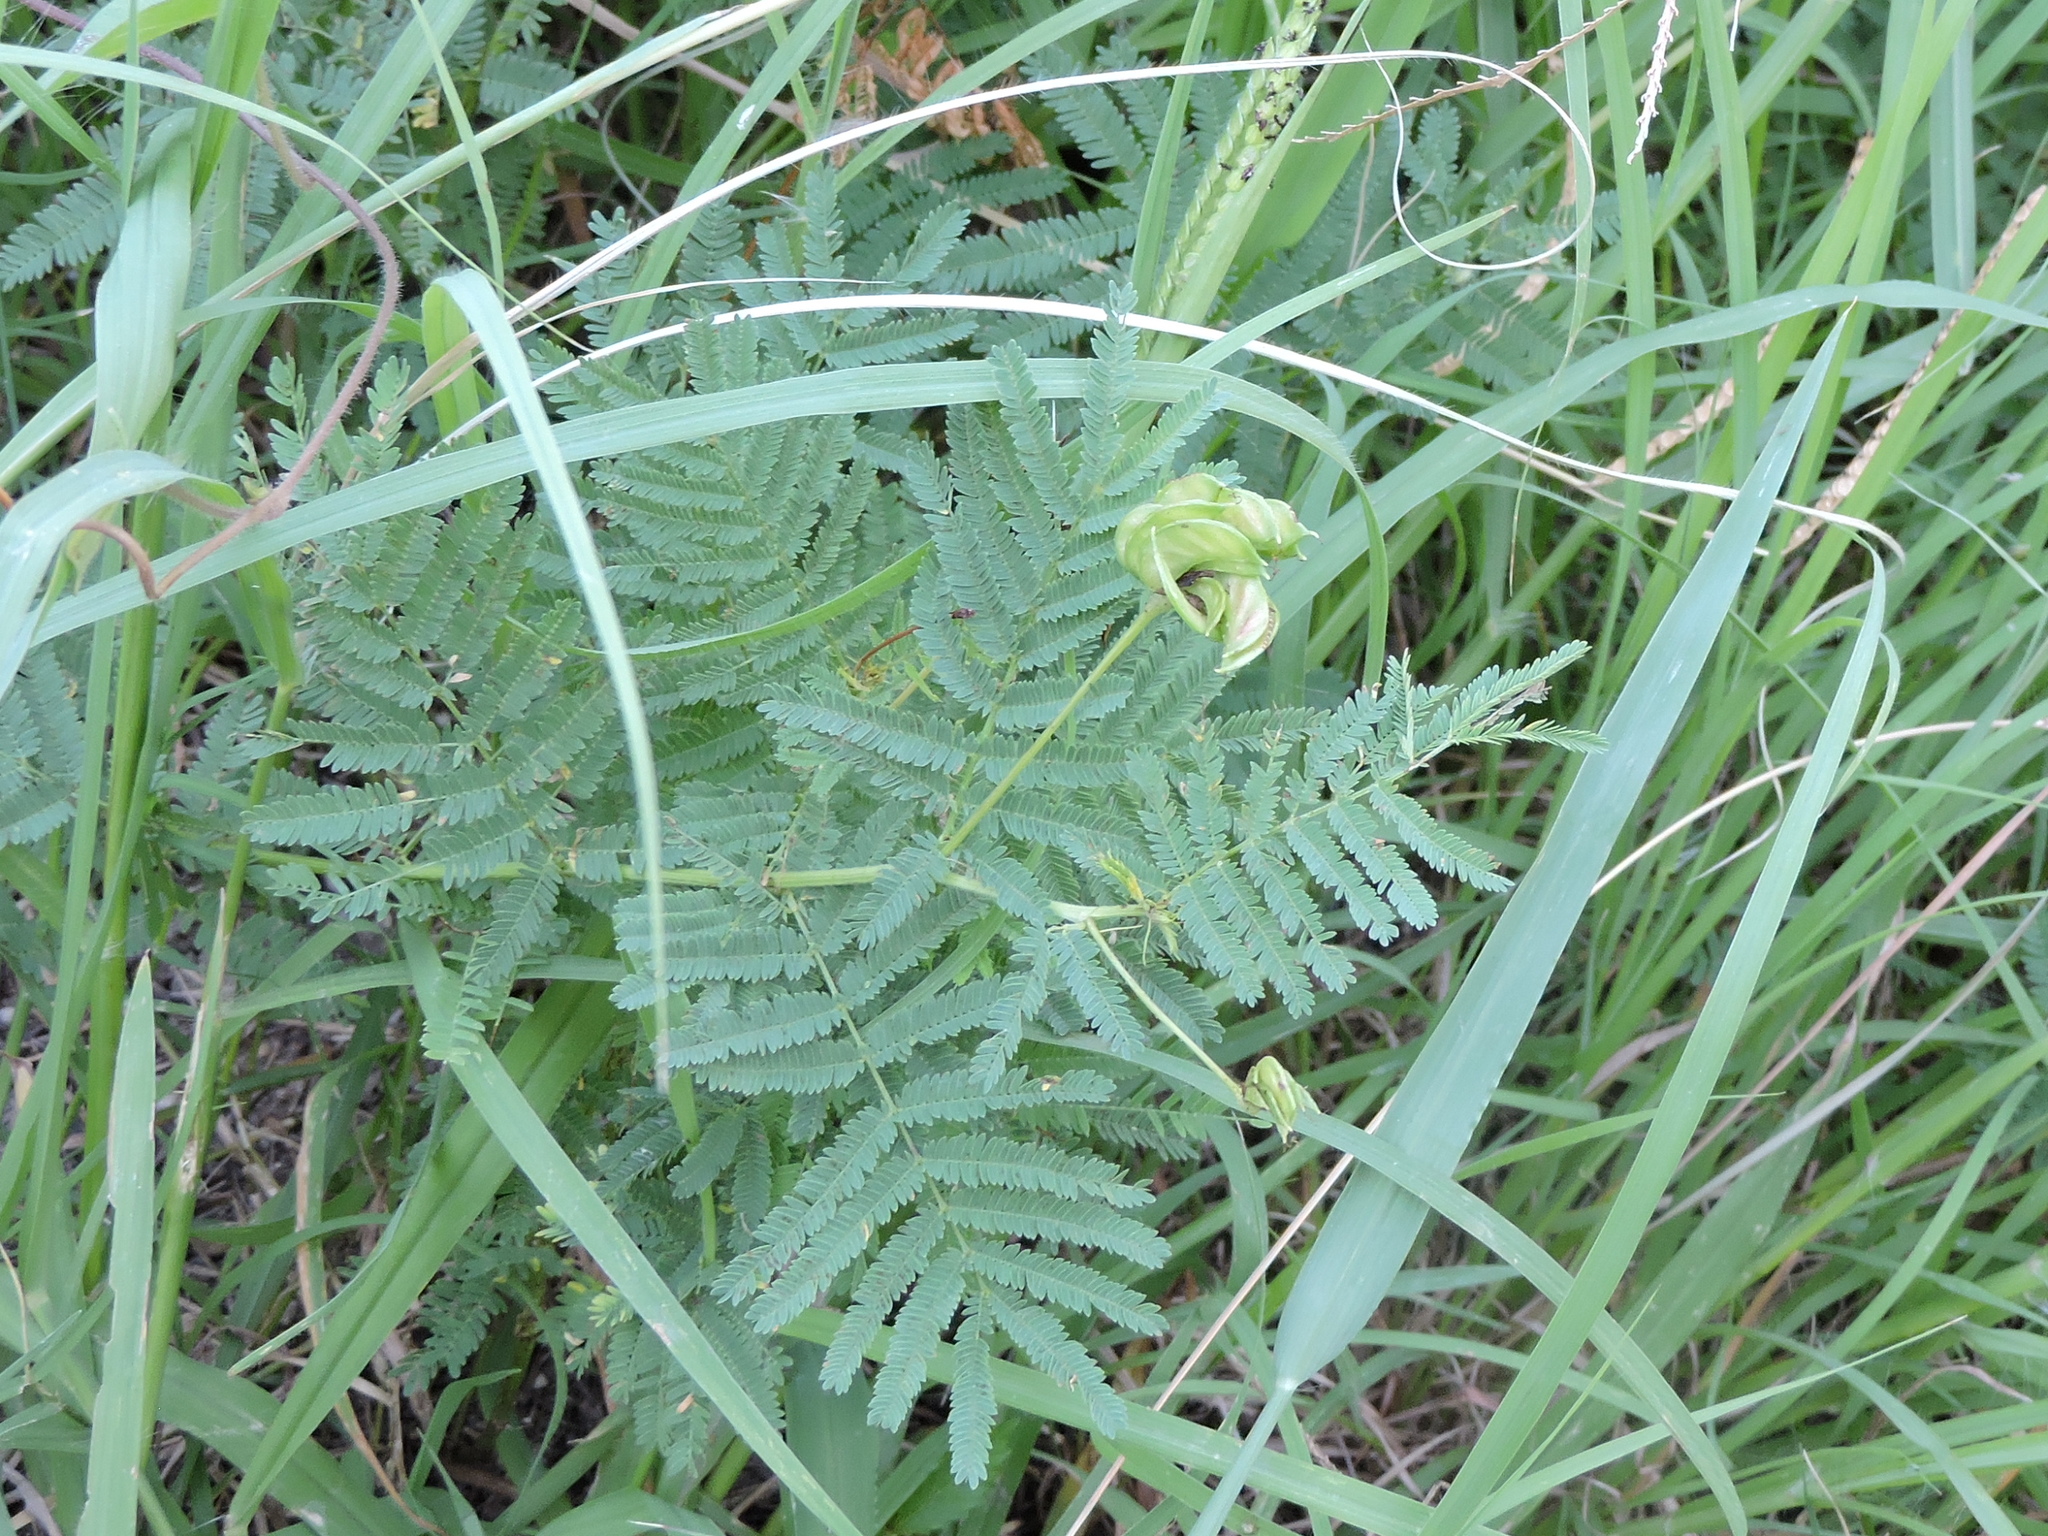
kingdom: Plantae
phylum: Tracheophyta
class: Magnoliopsida
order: Fabales
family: Fabaceae
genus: Desmanthus
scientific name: Desmanthus illinoensis
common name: Illinois bundle-flower
